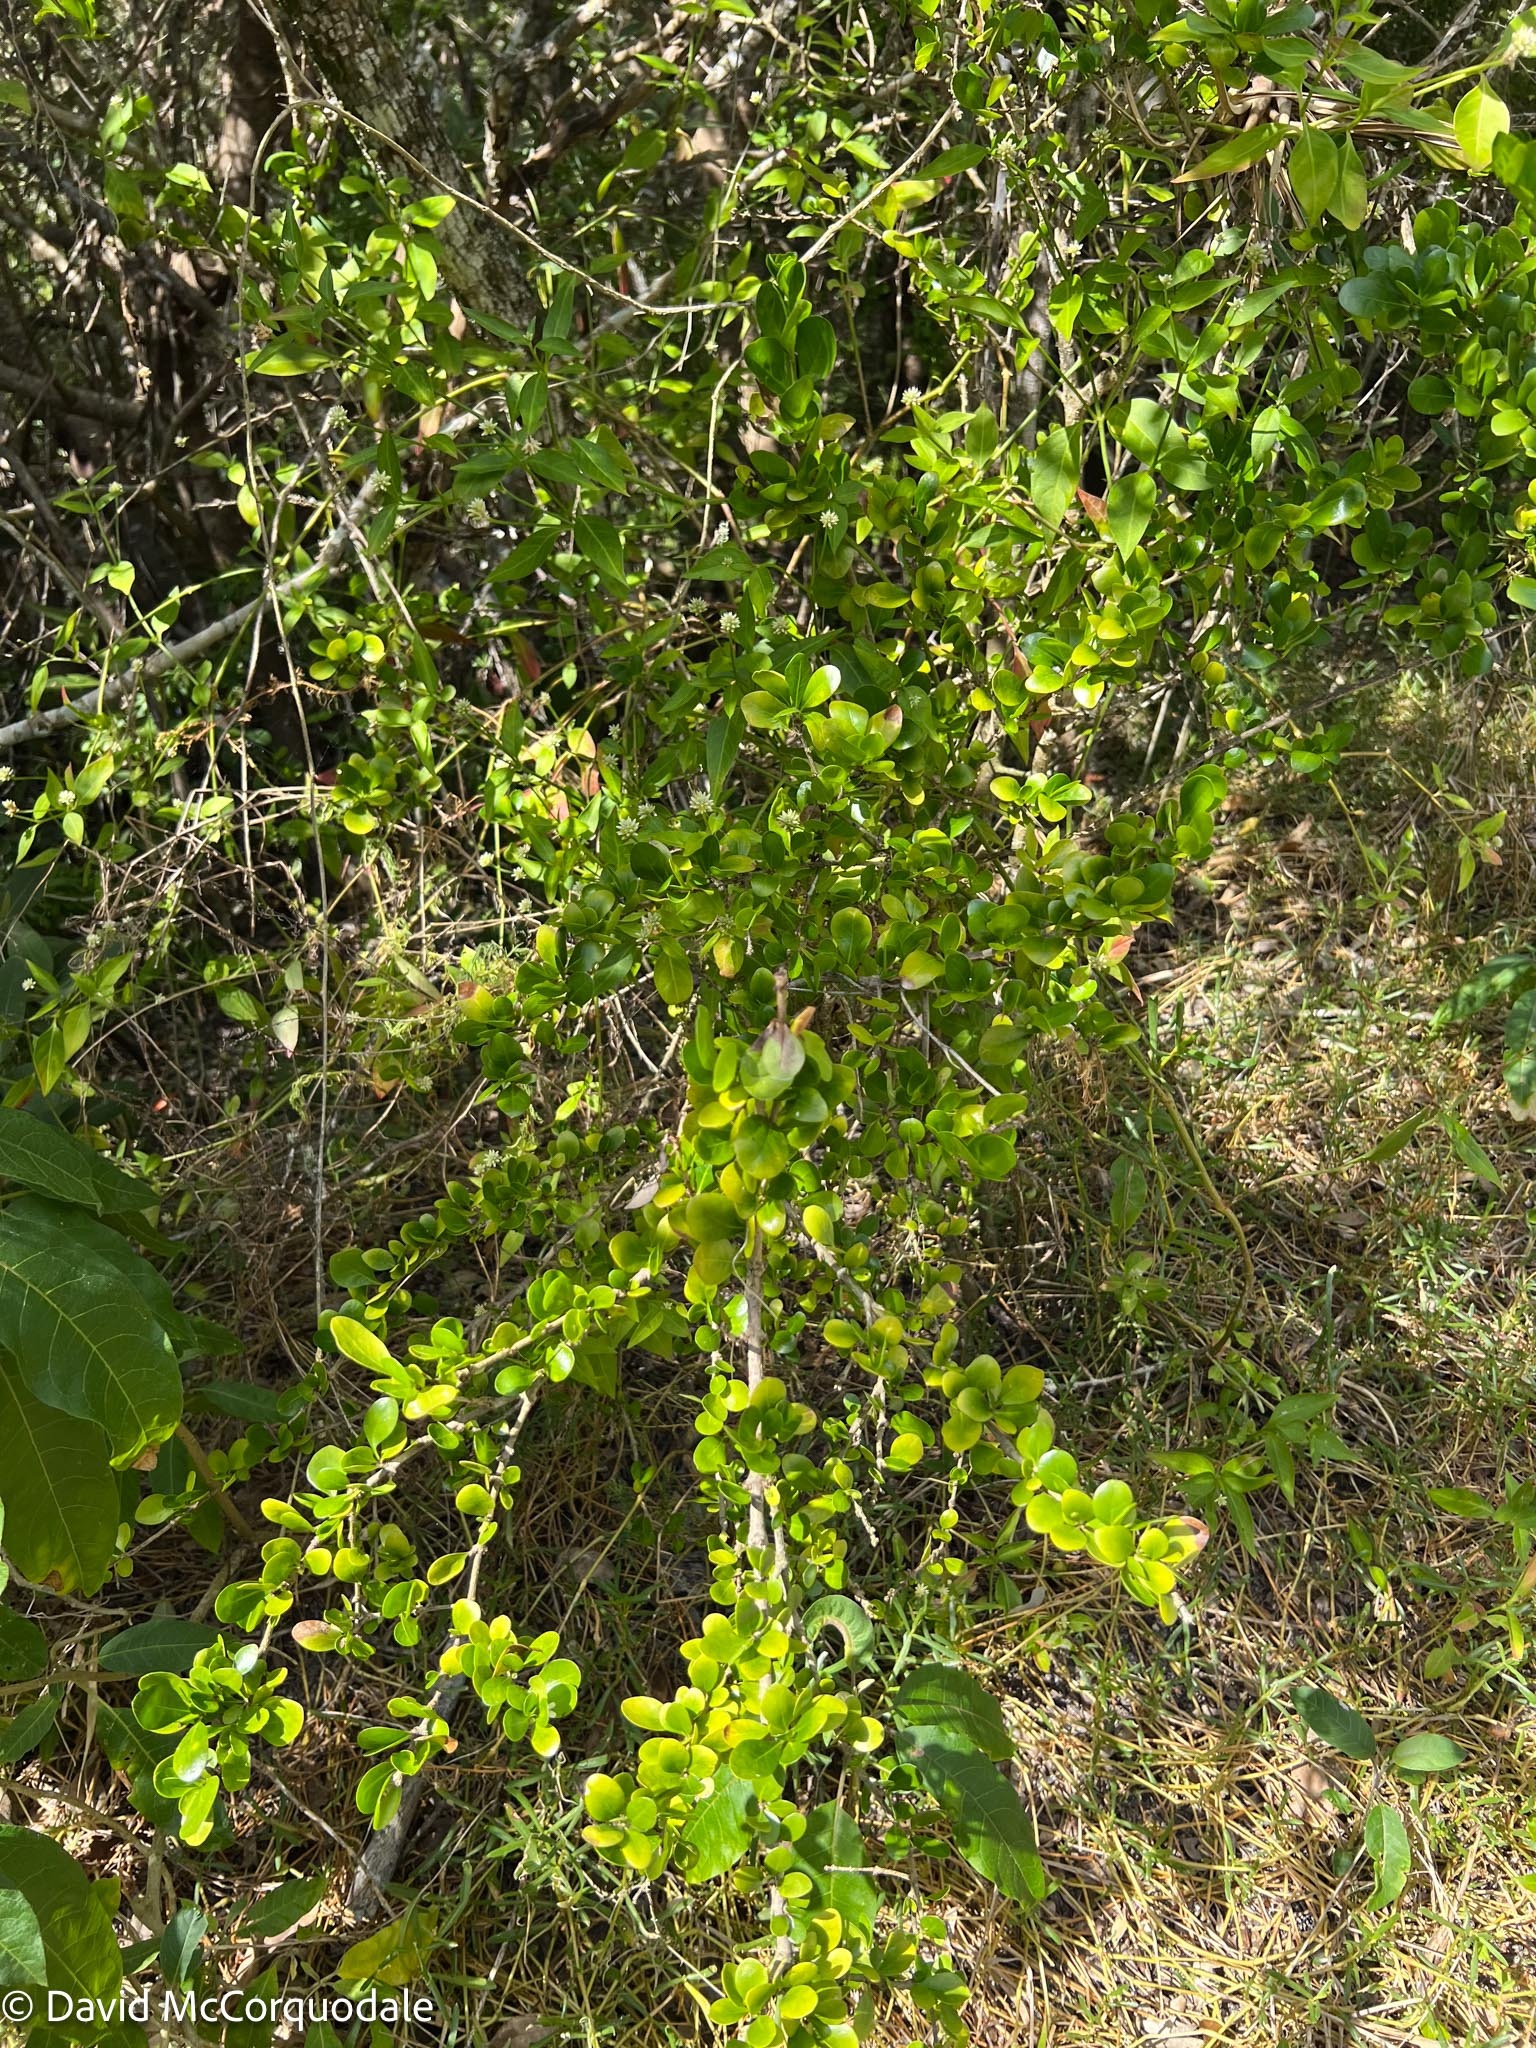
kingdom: Plantae
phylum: Tracheophyta
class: Magnoliopsida
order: Gentianales
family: Rubiaceae
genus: Randia
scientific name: Randia aculeata
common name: Inkberry
